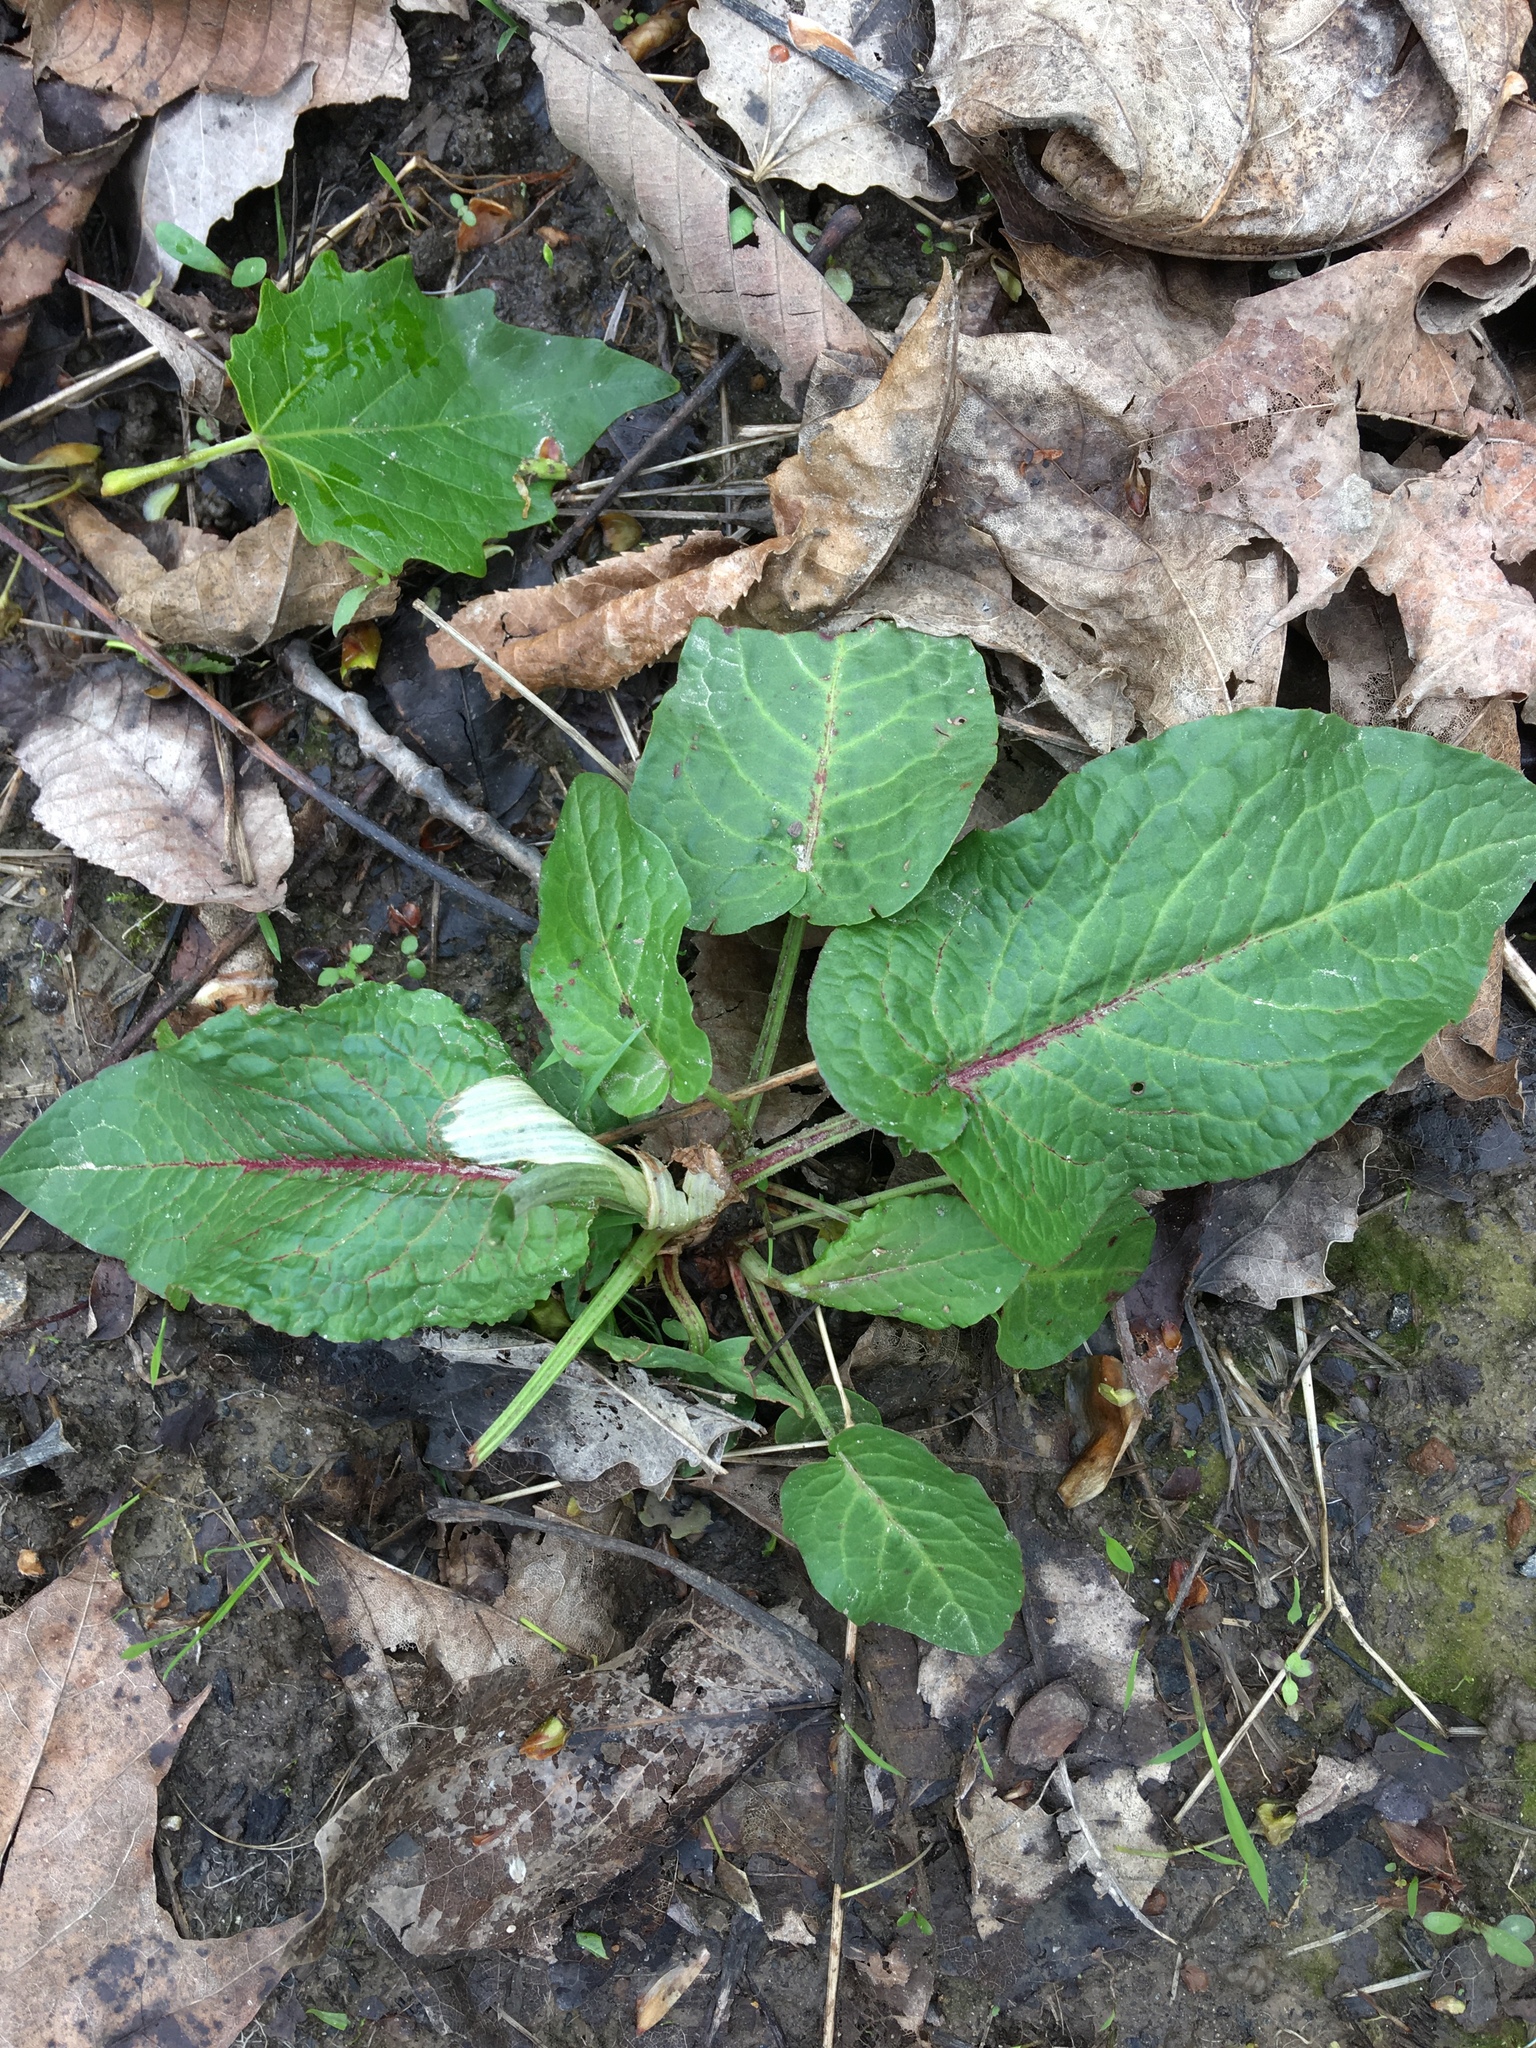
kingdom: Plantae
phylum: Tracheophyta
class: Magnoliopsida
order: Caryophyllales
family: Polygonaceae
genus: Rumex
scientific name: Rumex obtusifolius
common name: Bitter dock
